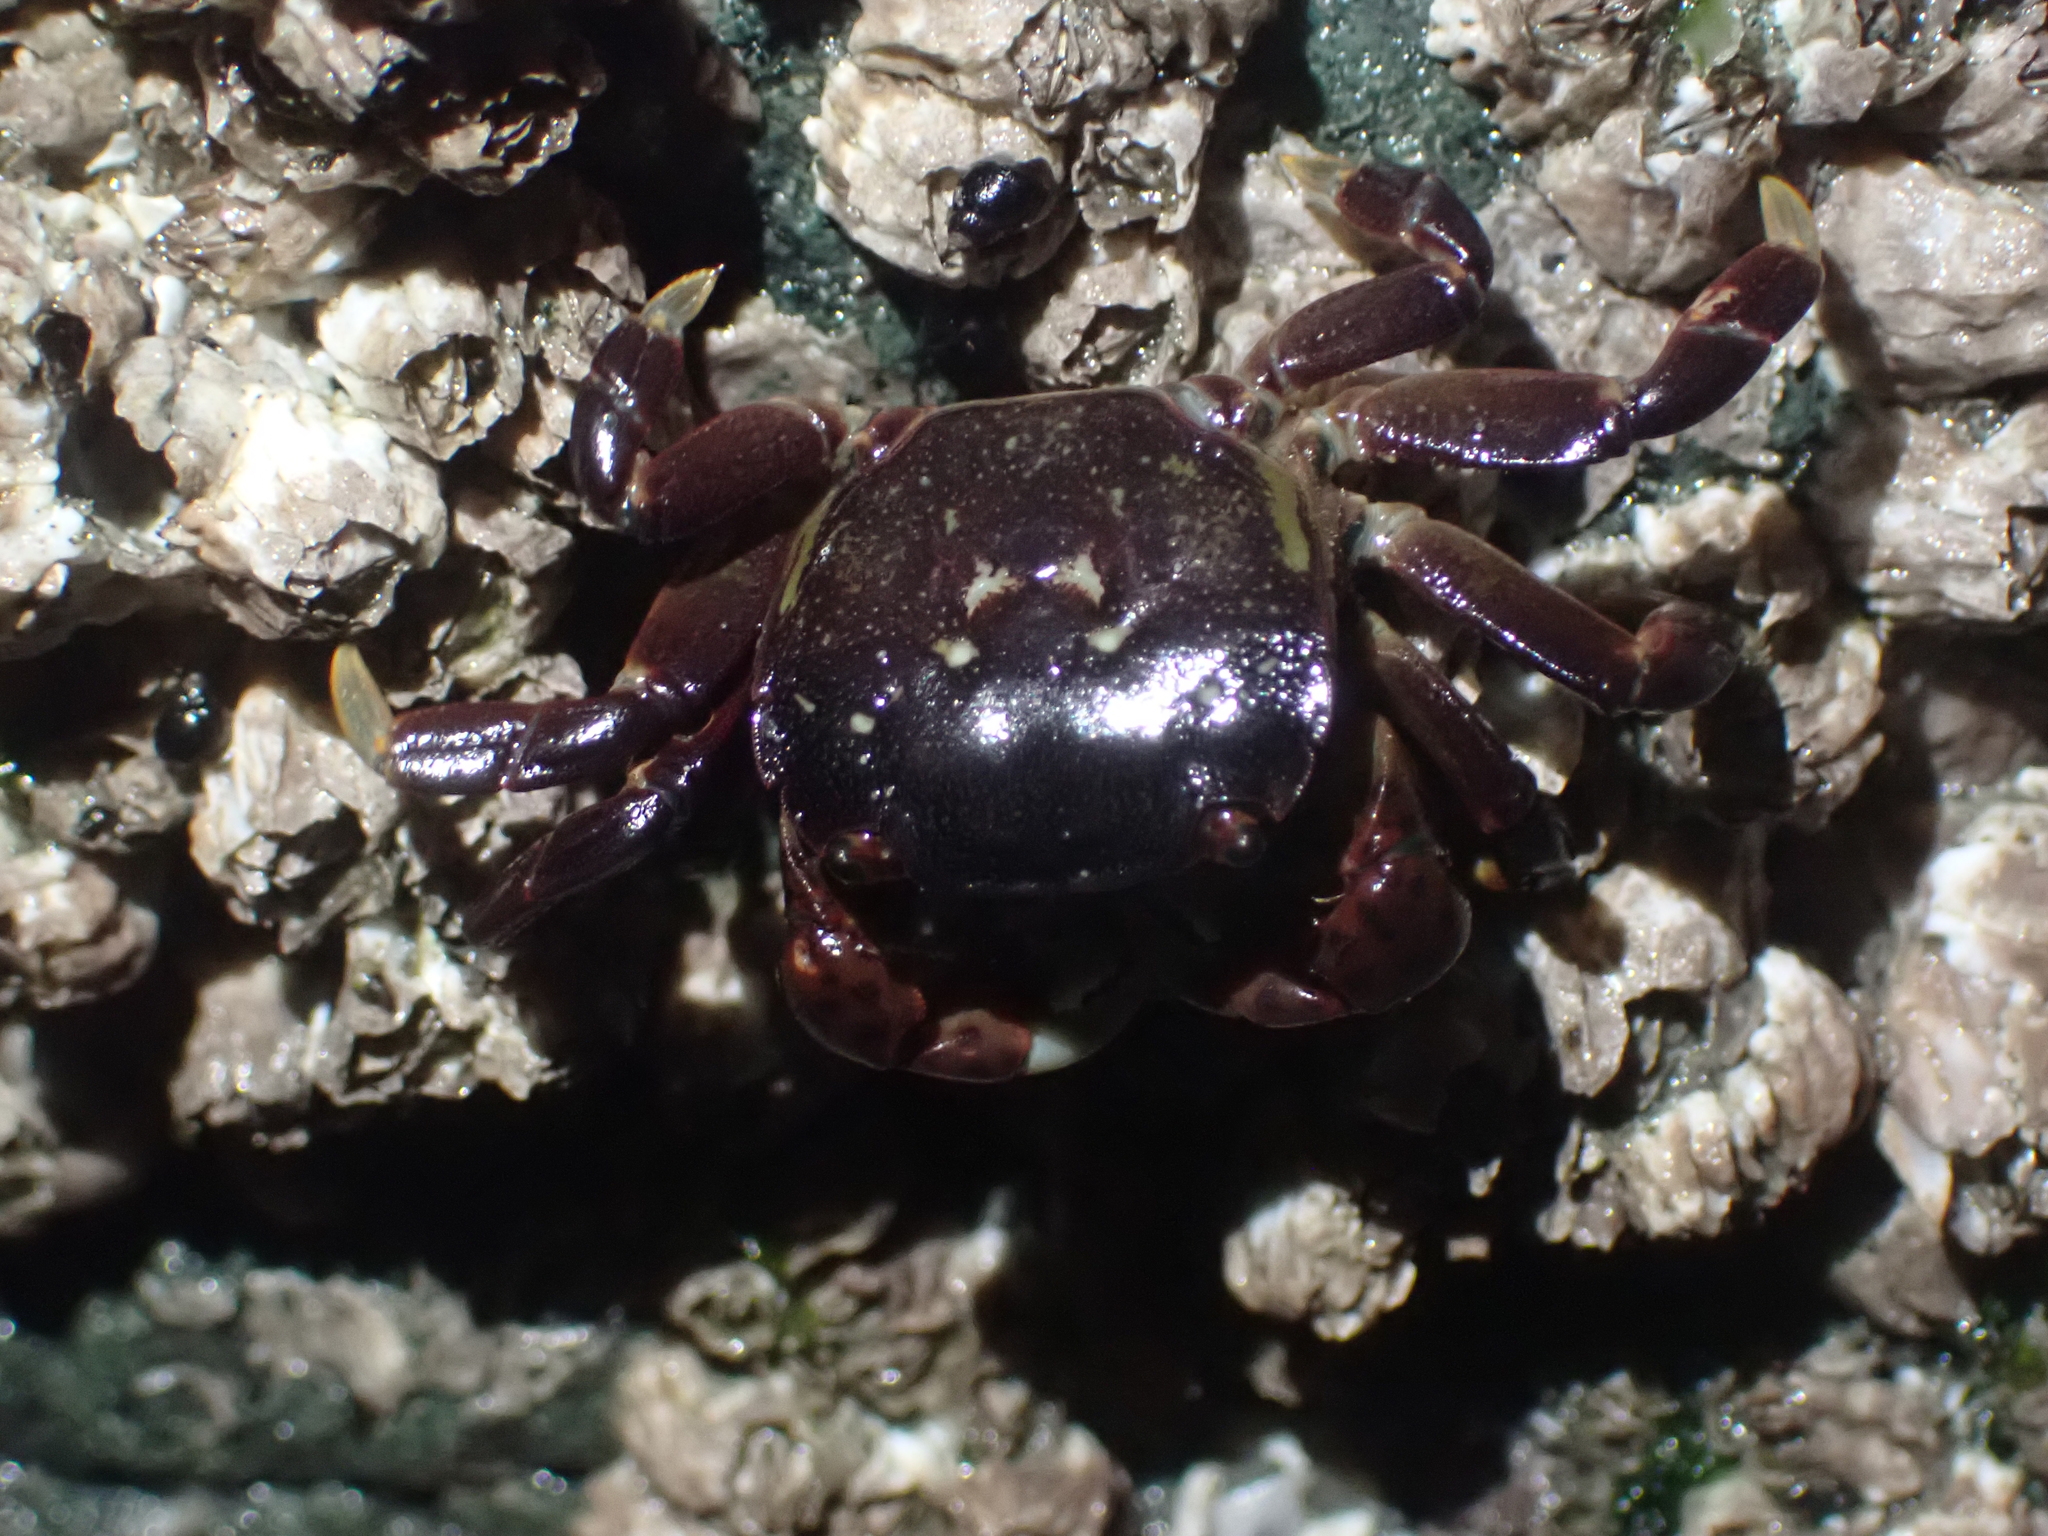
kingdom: Animalia
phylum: Arthropoda
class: Malacostraca
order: Decapoda
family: Varunidae
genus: Hemigrapsus
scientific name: Hemigrapsus nudus
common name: Purple shore crab
